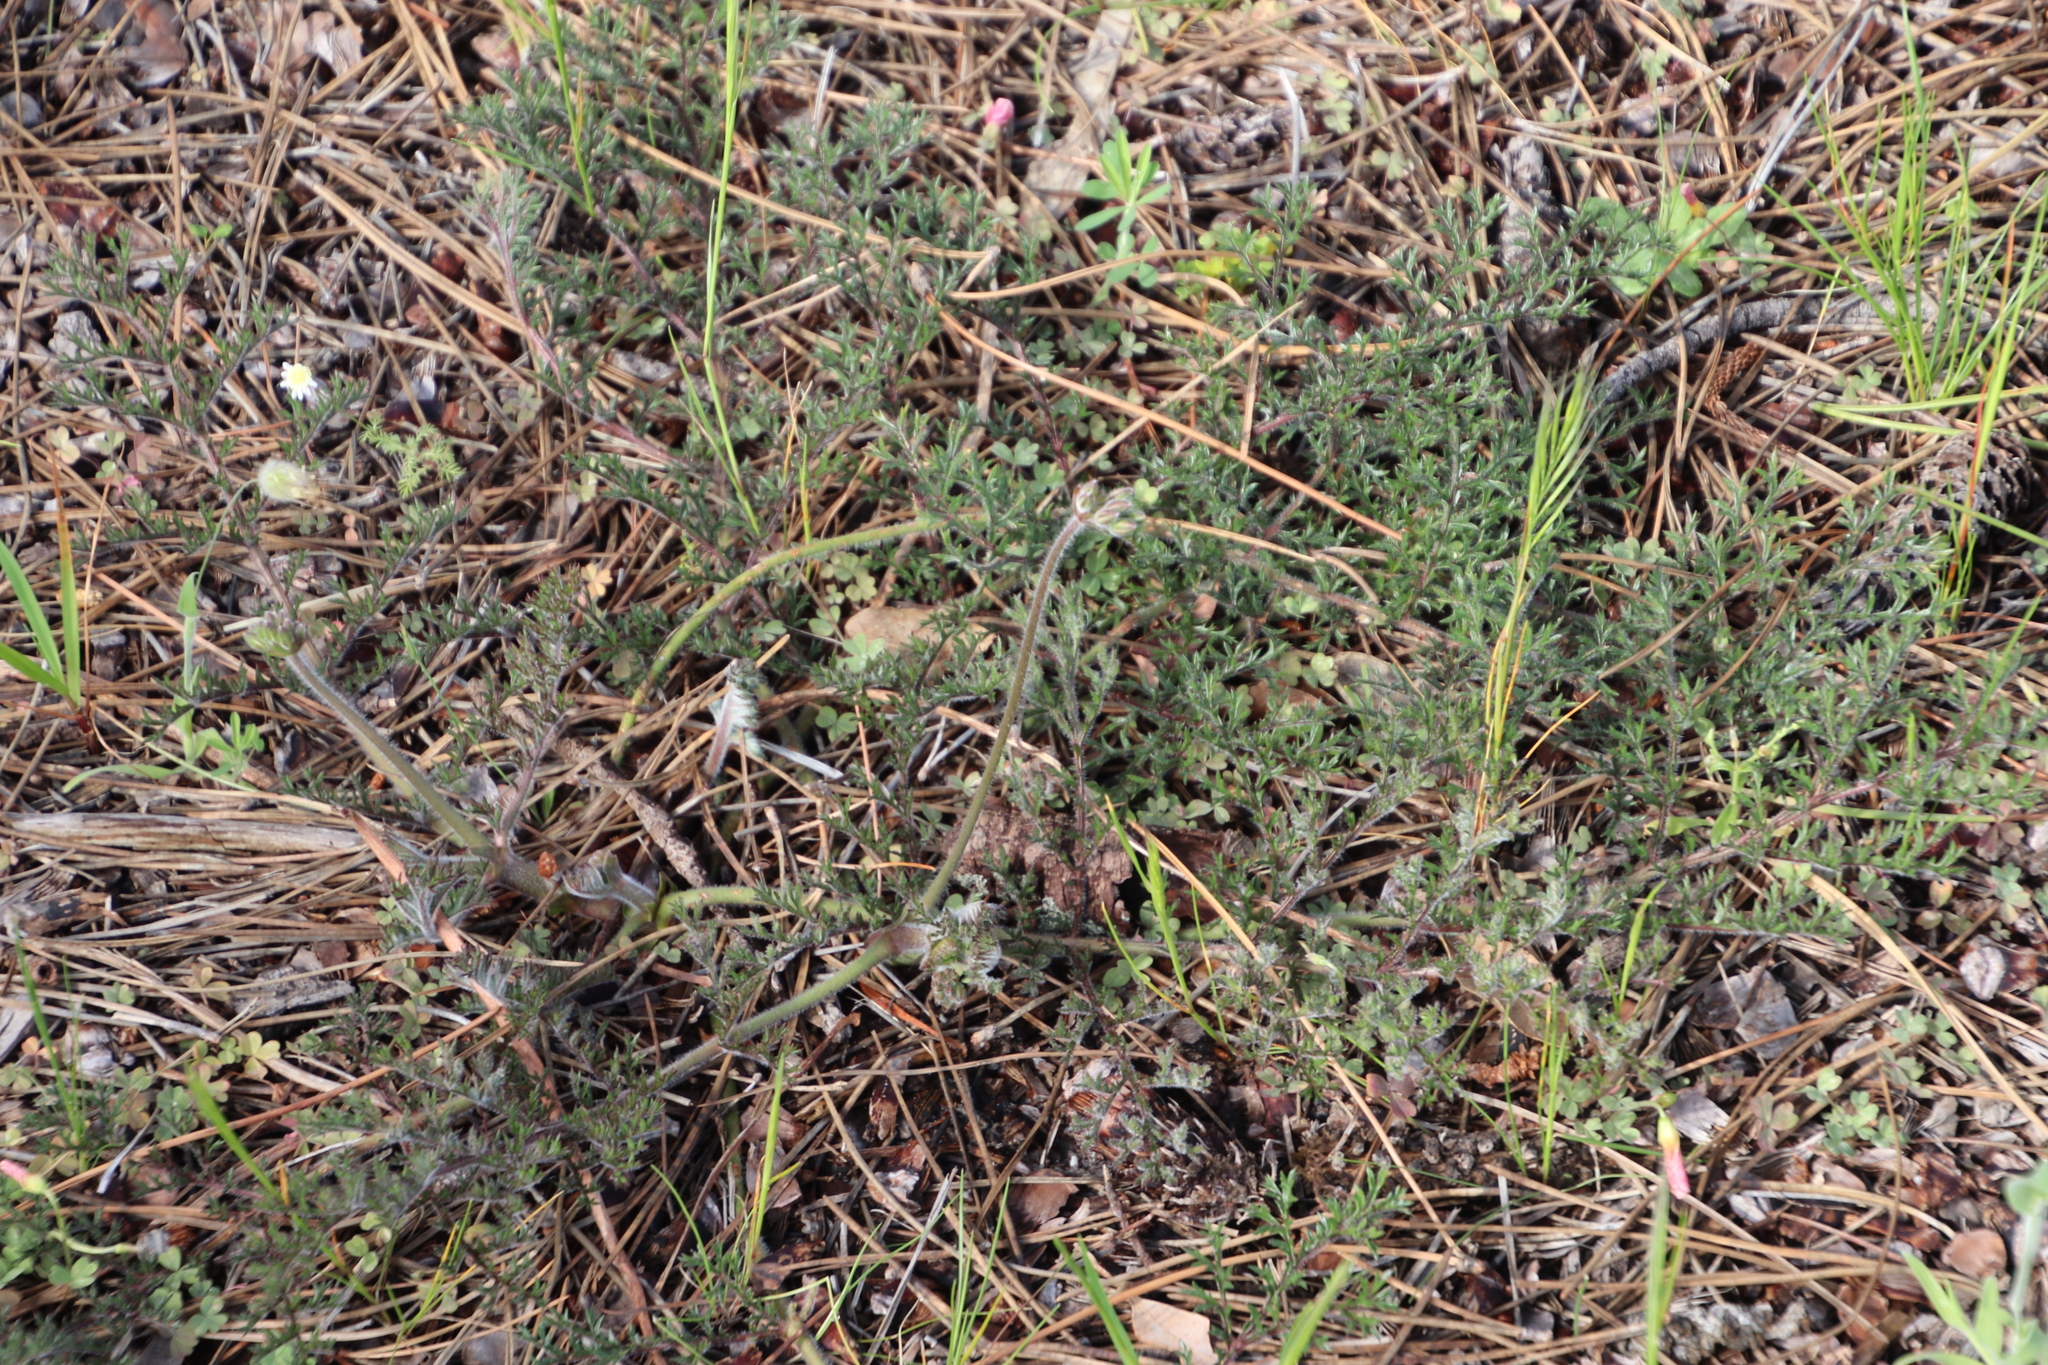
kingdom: Plantae
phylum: Tracheophyta
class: Magnoliopsida
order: Geraniales
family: Geraniaceae
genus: Pelargonium
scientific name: Pelargonium triste
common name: Night-scent pelargonium
